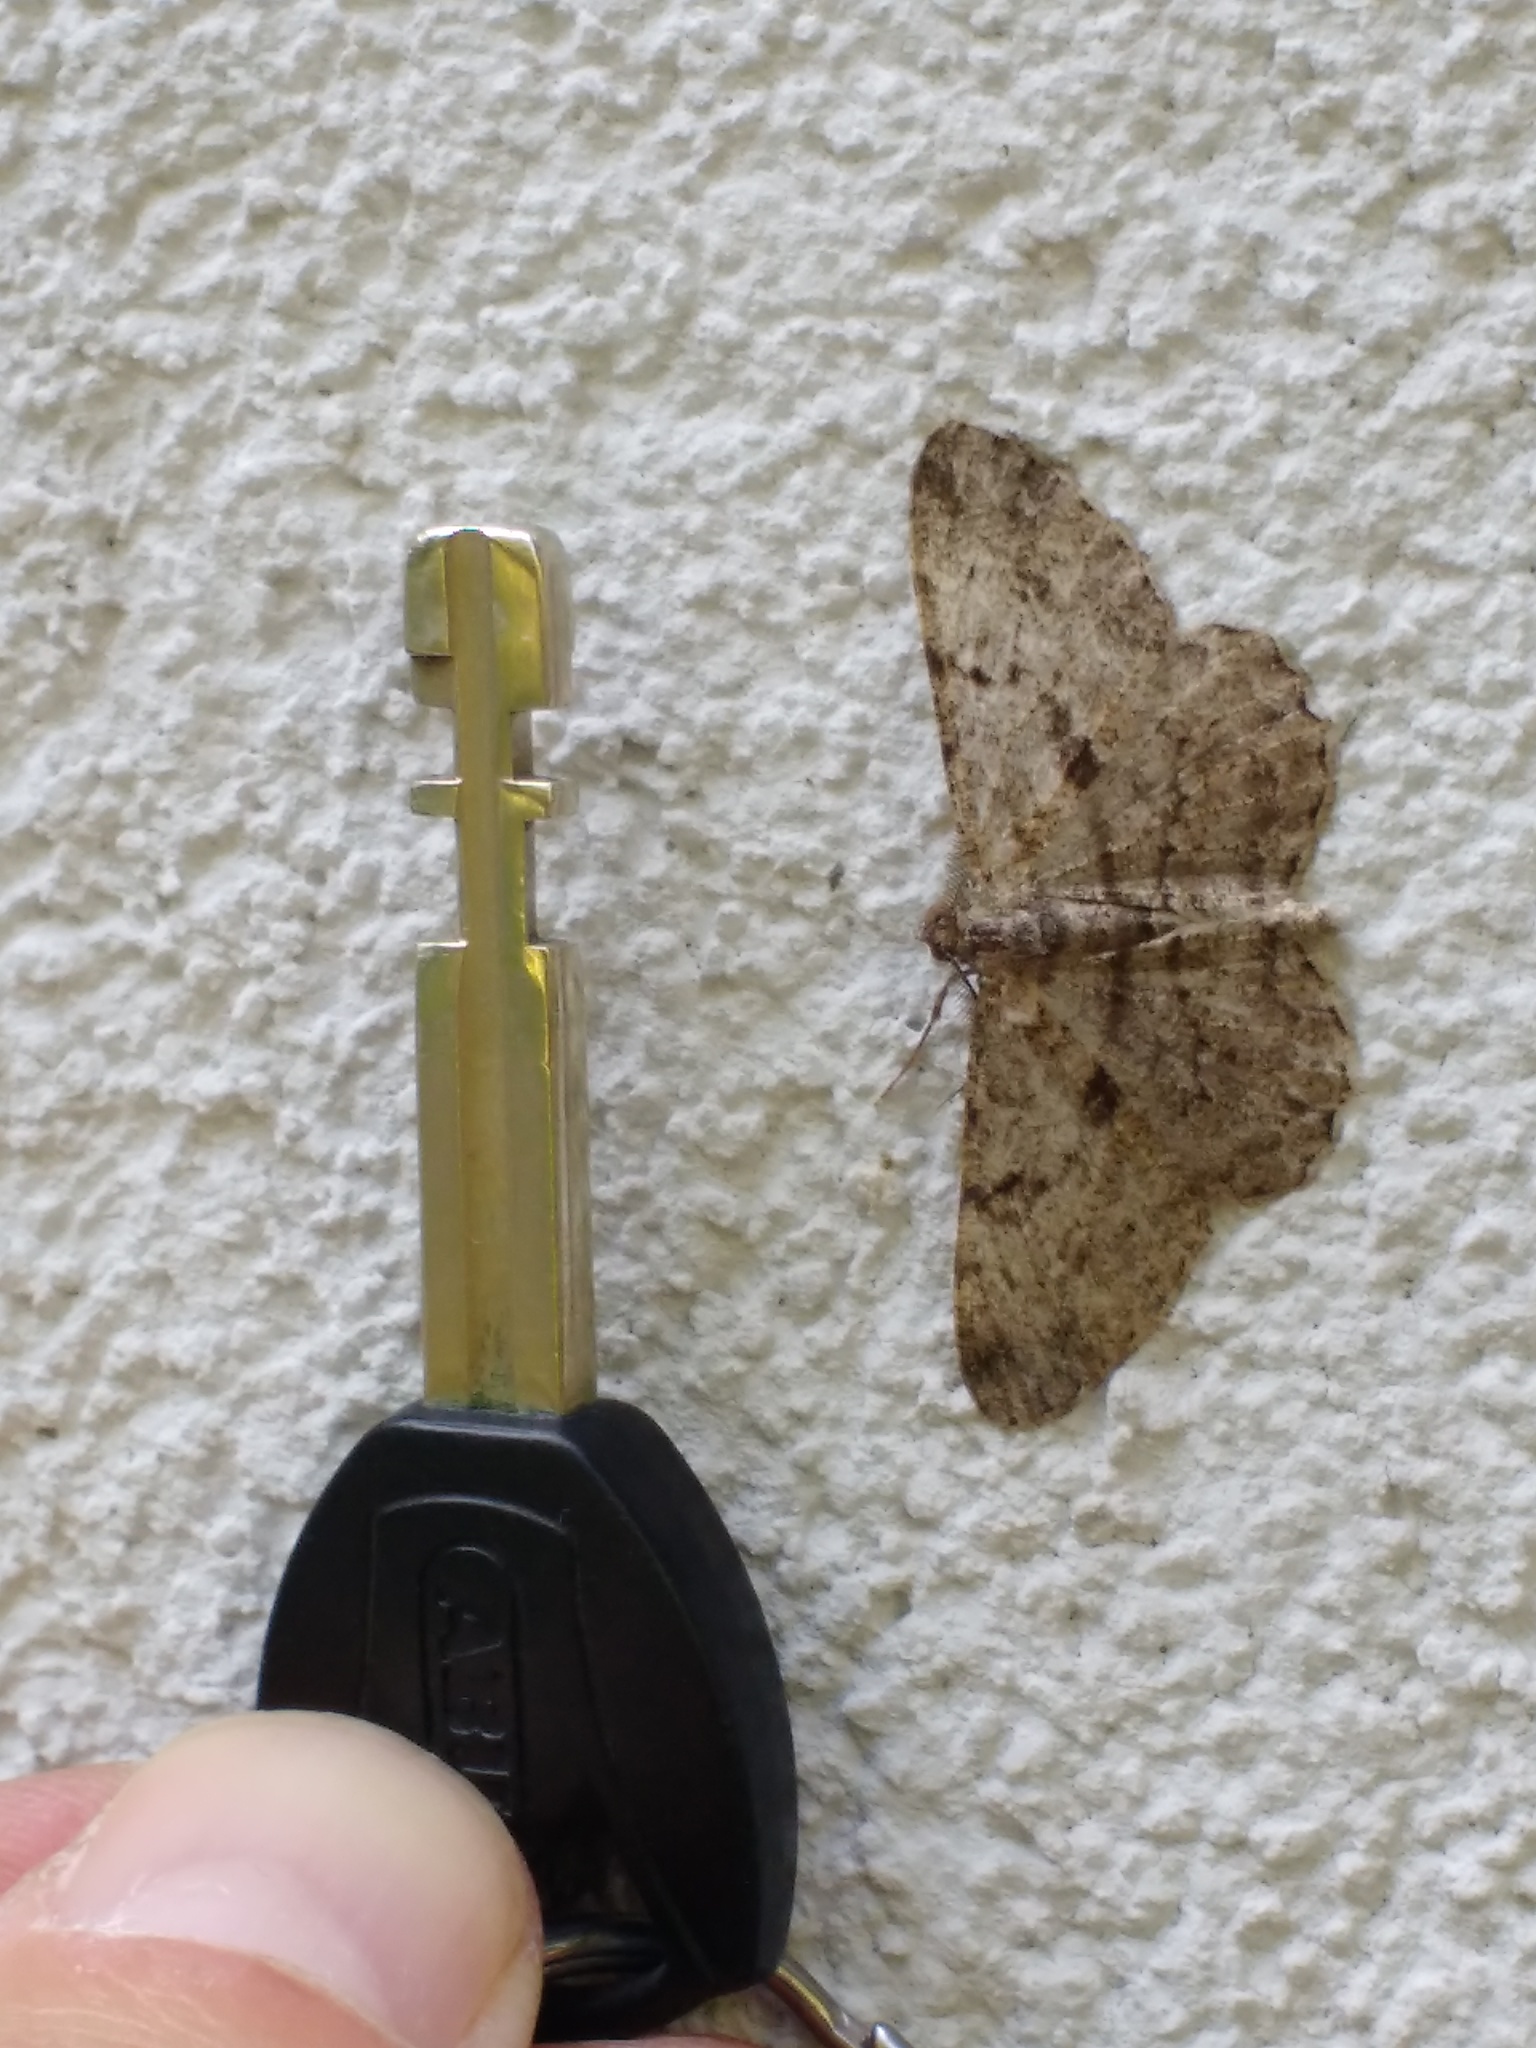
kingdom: Animalia
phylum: Arthropoda
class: Insecta
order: Lepidoptera
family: Geometridae
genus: Peribatodes
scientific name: Peribatodes rhomboidaria
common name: Willow beauty
